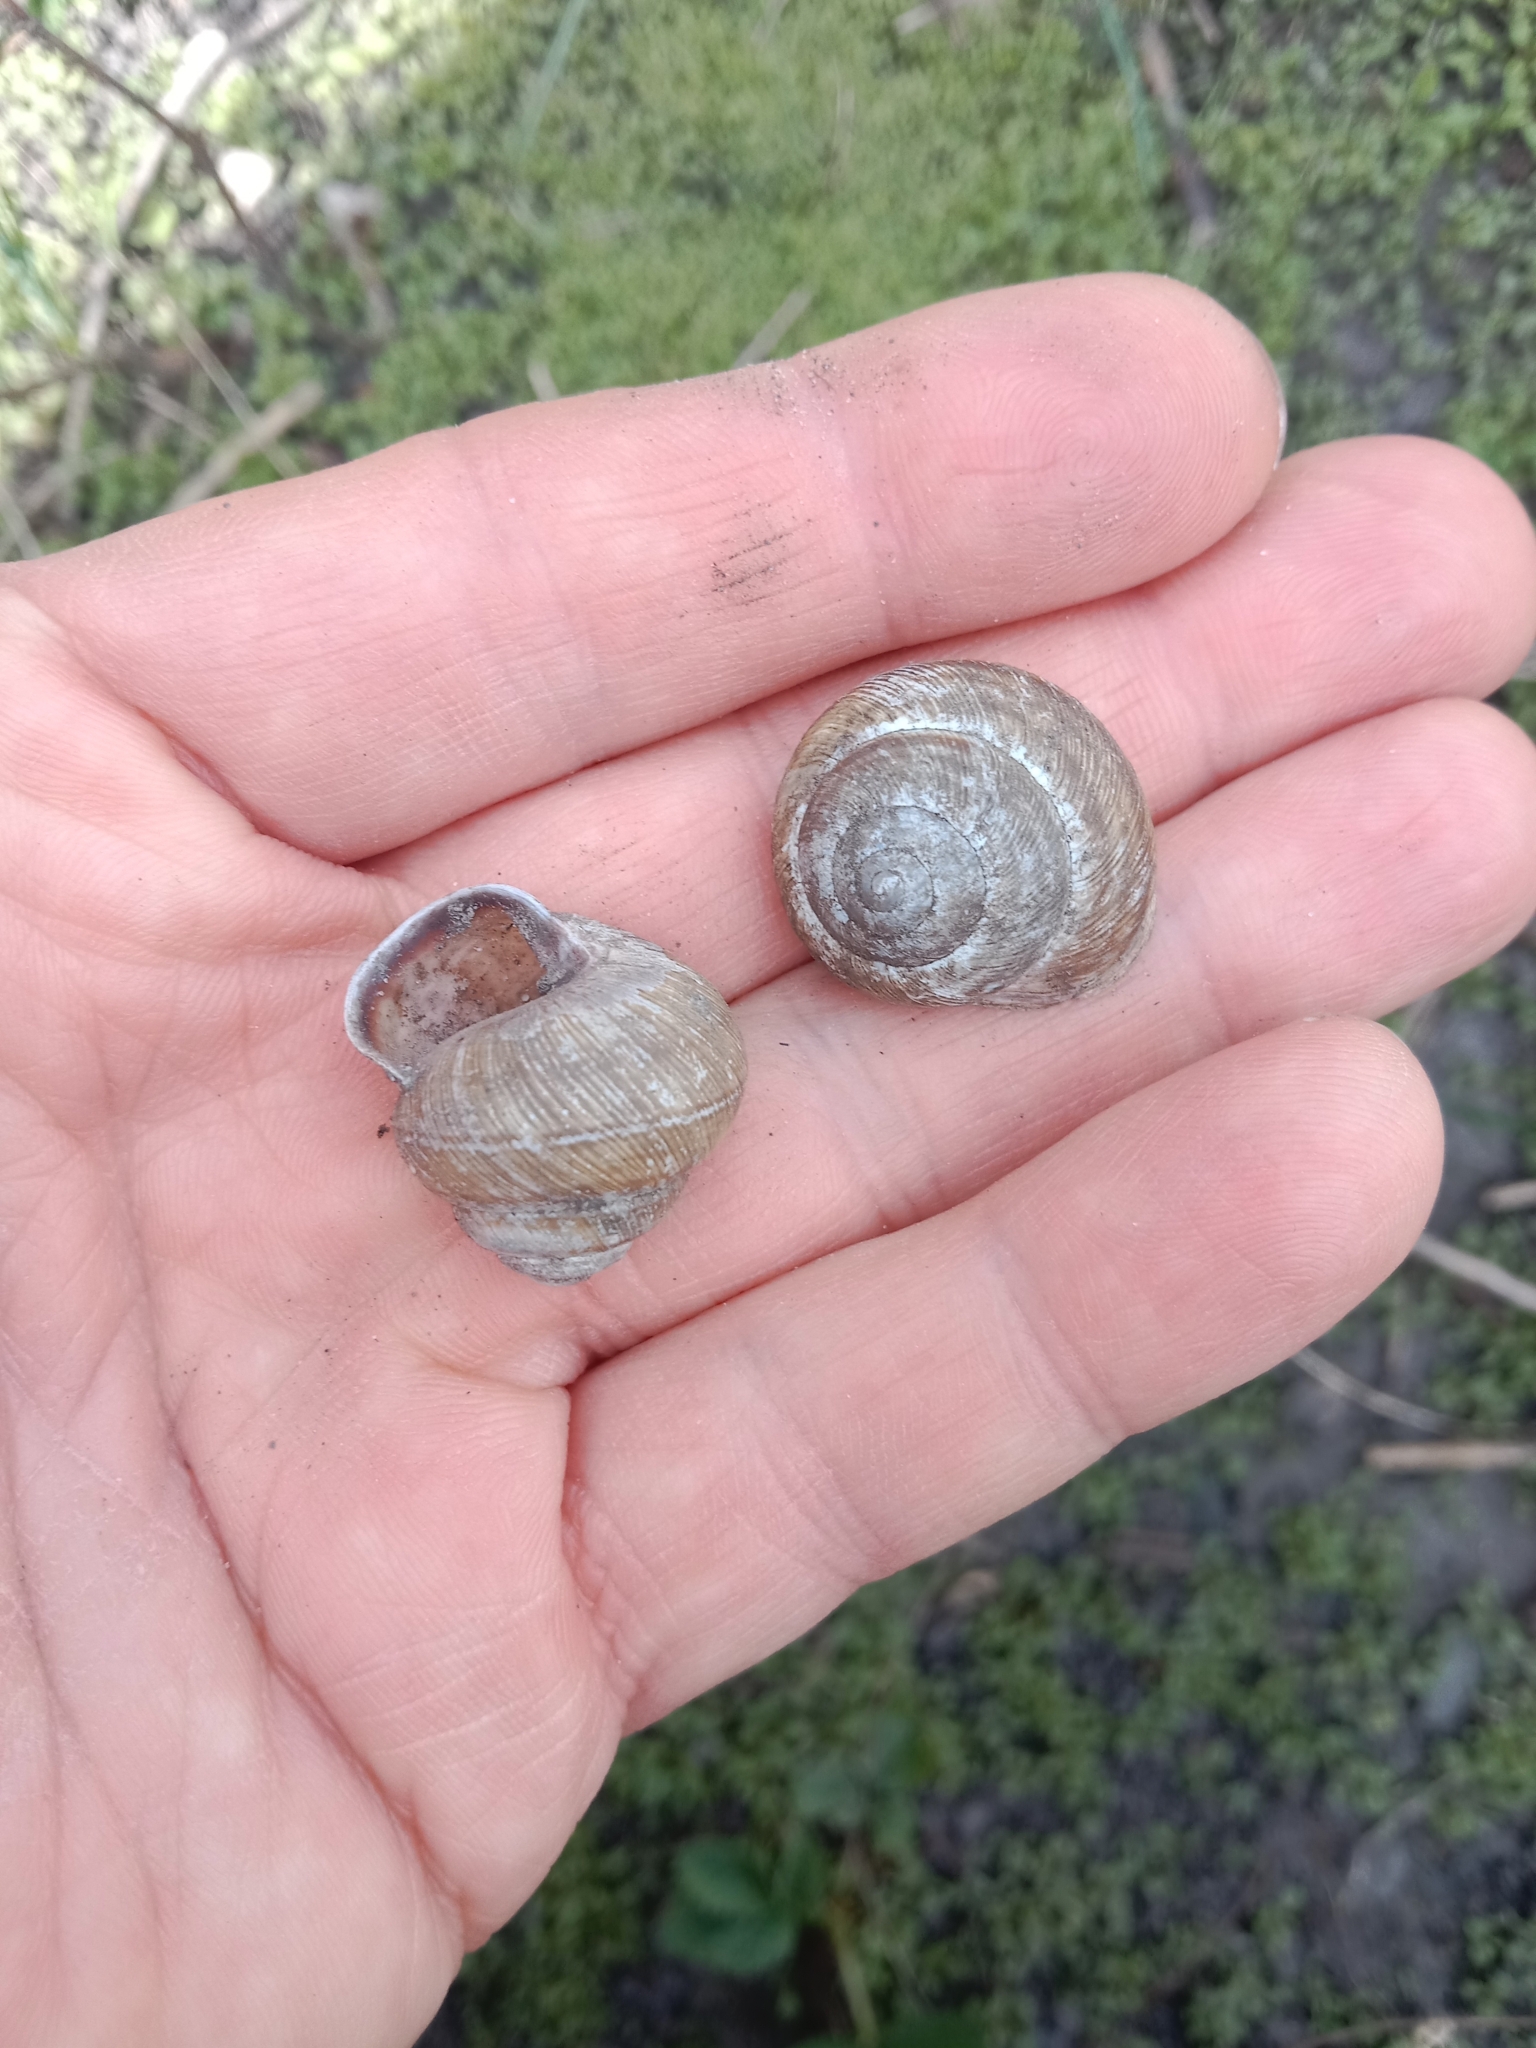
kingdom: Animalia
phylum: Mollusca
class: Gastropoda
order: Stylommatophora
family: Helicidae
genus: Caucasotachea
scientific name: Caucasotachea vindobonensis
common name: European helicid land snail
